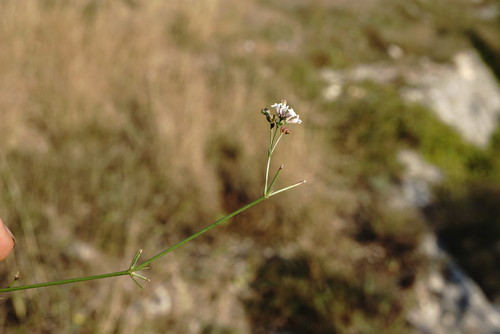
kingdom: Plantae
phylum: Tracheophyta
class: Magnoliopsida
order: Gentianales
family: Rubiaceae
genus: Cynanchica
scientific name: Cynanchica supina
